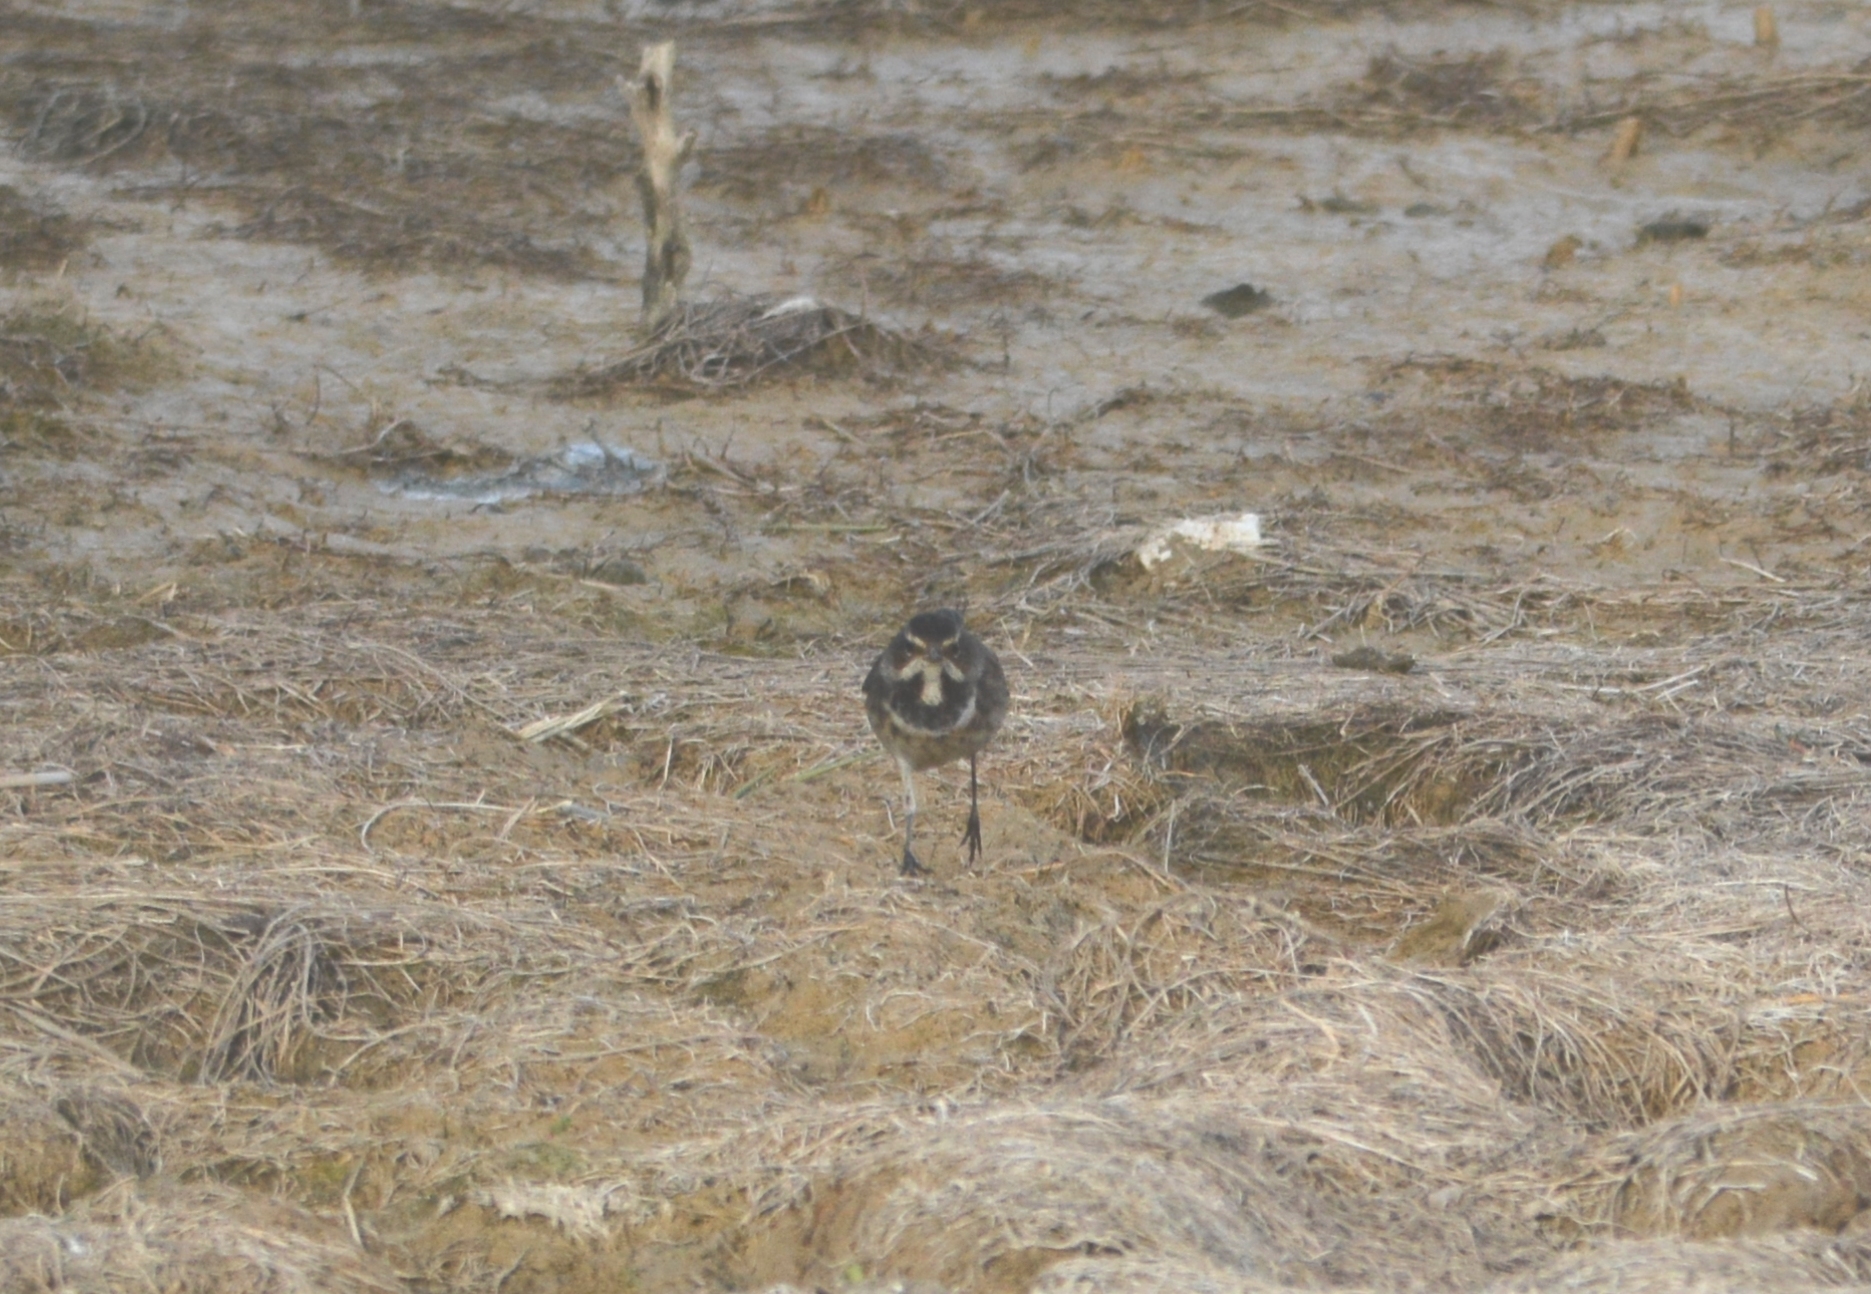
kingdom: Animalia
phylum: Chordata
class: Aves
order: Passeriformes
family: Muscicapidae
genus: Luscinia
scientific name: Luscinia svecica
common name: Bluethroat
